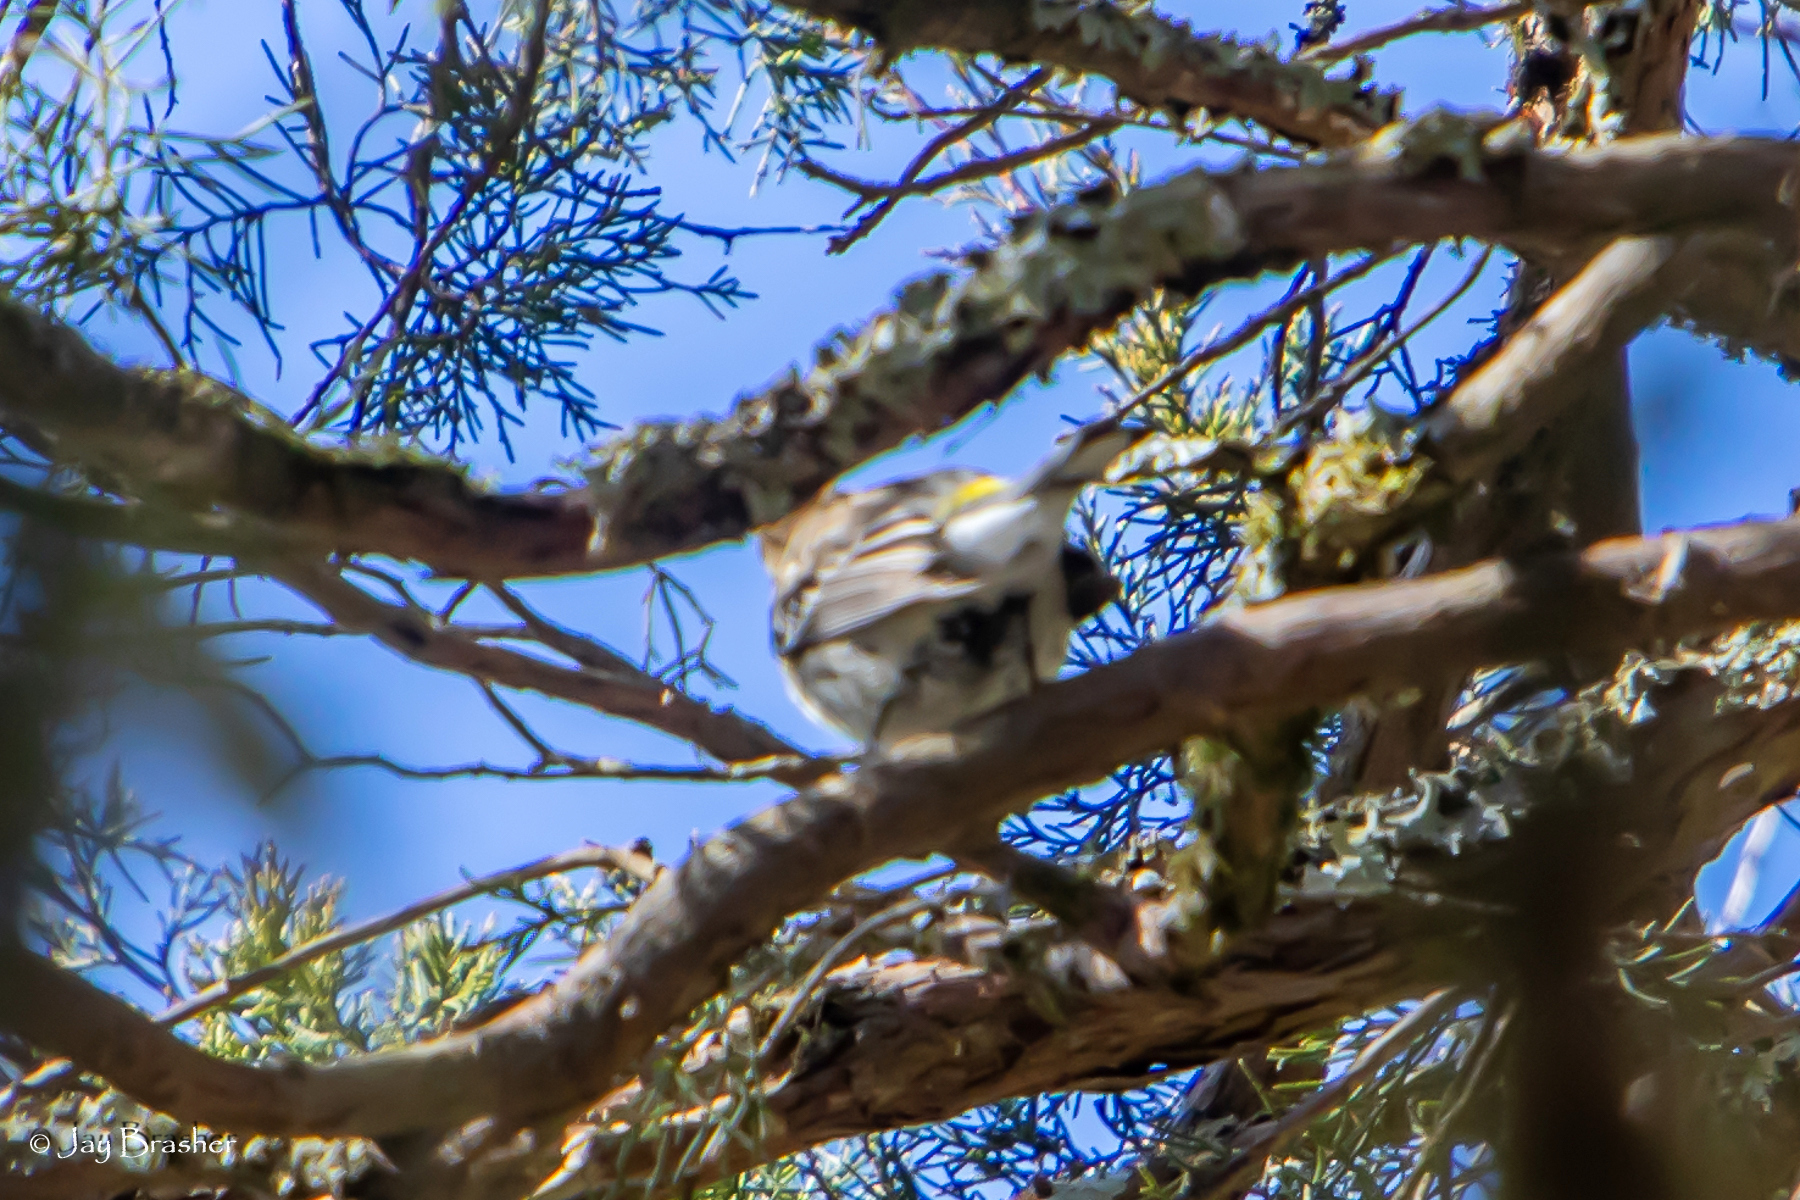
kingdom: Animalia
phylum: Chordata
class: Aves
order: Passeriformes
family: Parulidae
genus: Setophaga
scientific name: Setophaga coronata
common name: Myrtle warbler
